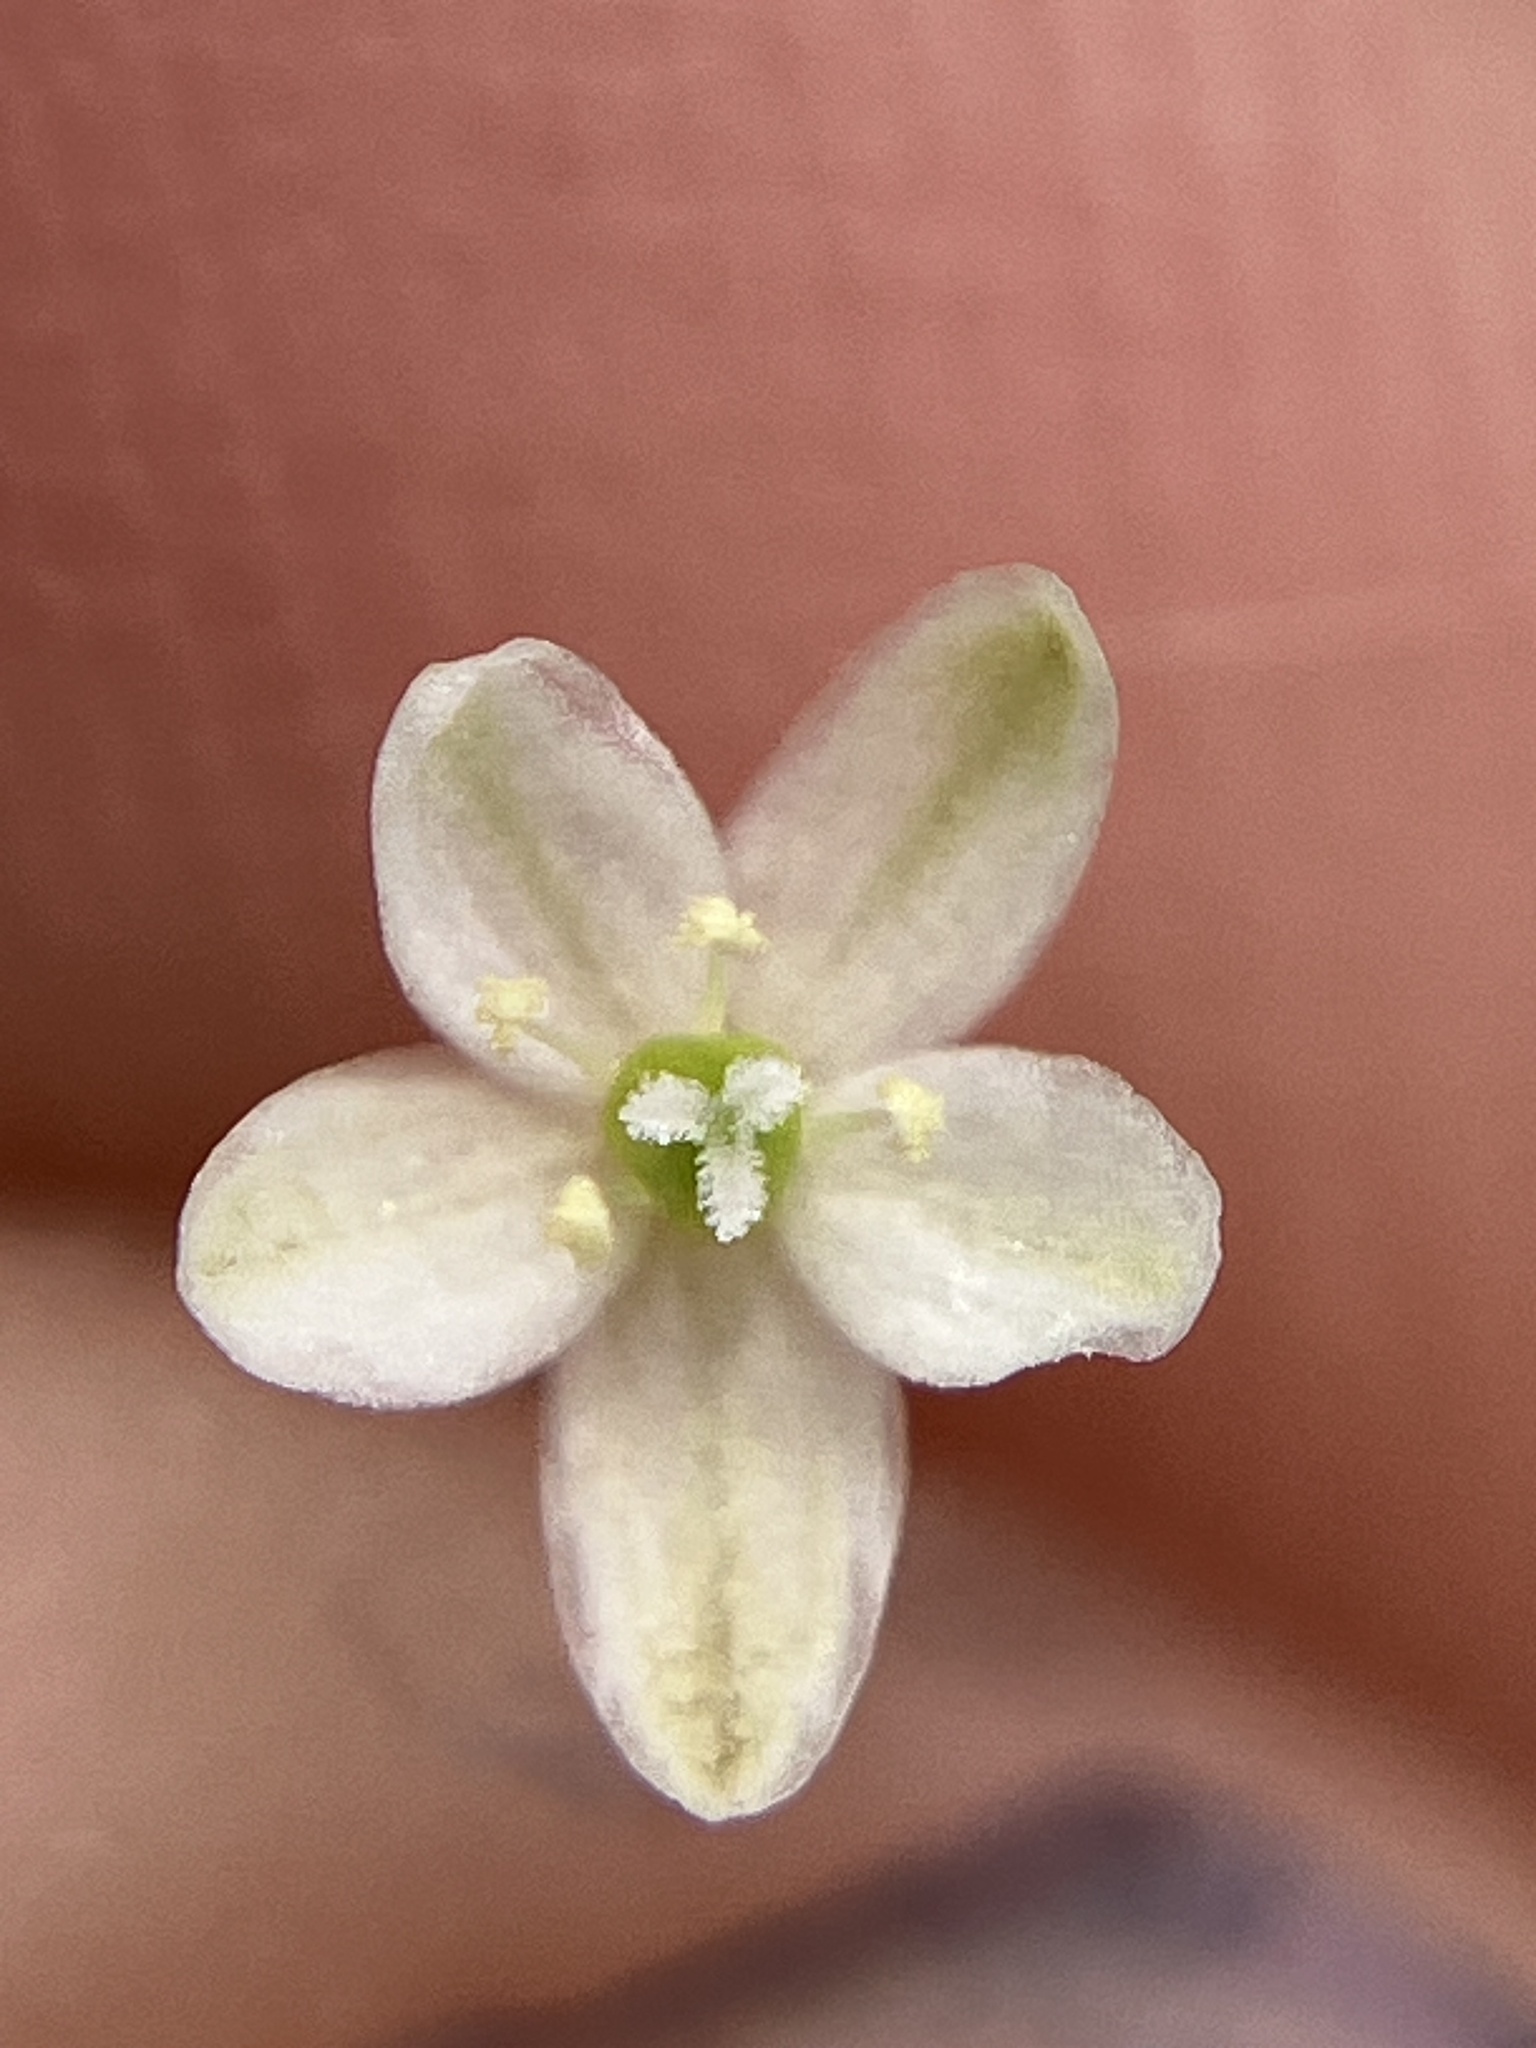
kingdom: Plantae
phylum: Tracheophyta
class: Magnoliopsida
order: Caryophyllales
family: Molluginaceae
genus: Paramollugo
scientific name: Paramollugo nudicaulis
